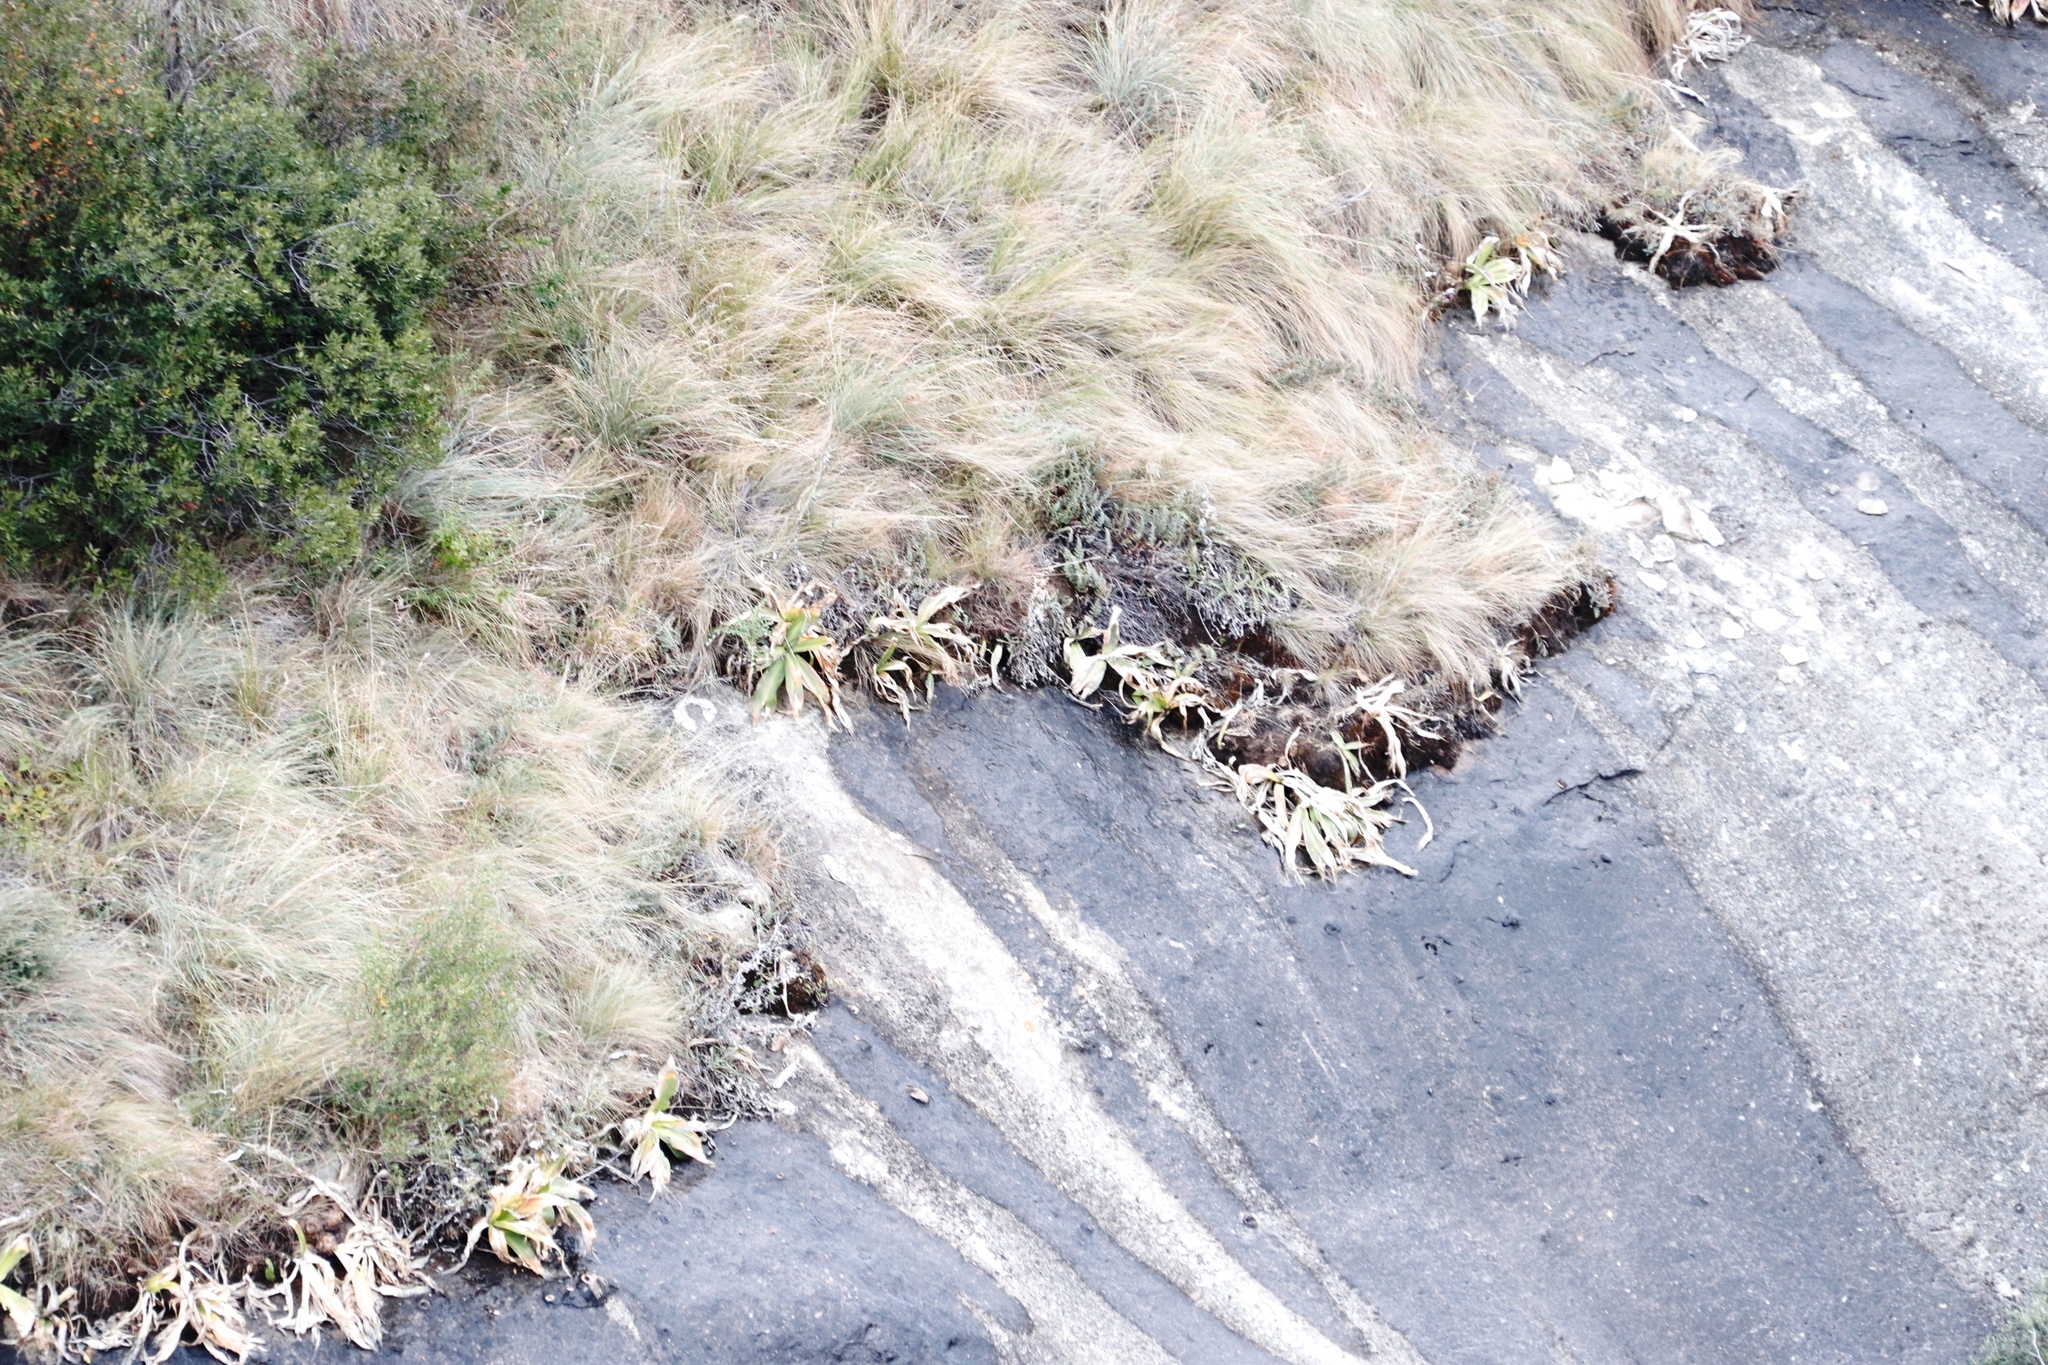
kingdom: Plantae
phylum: Tracheophyta
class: Liliopsida
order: Asparagales
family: Asparagaceae
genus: Merwilla
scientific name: Merwilla plumbea
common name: Blue-squill
